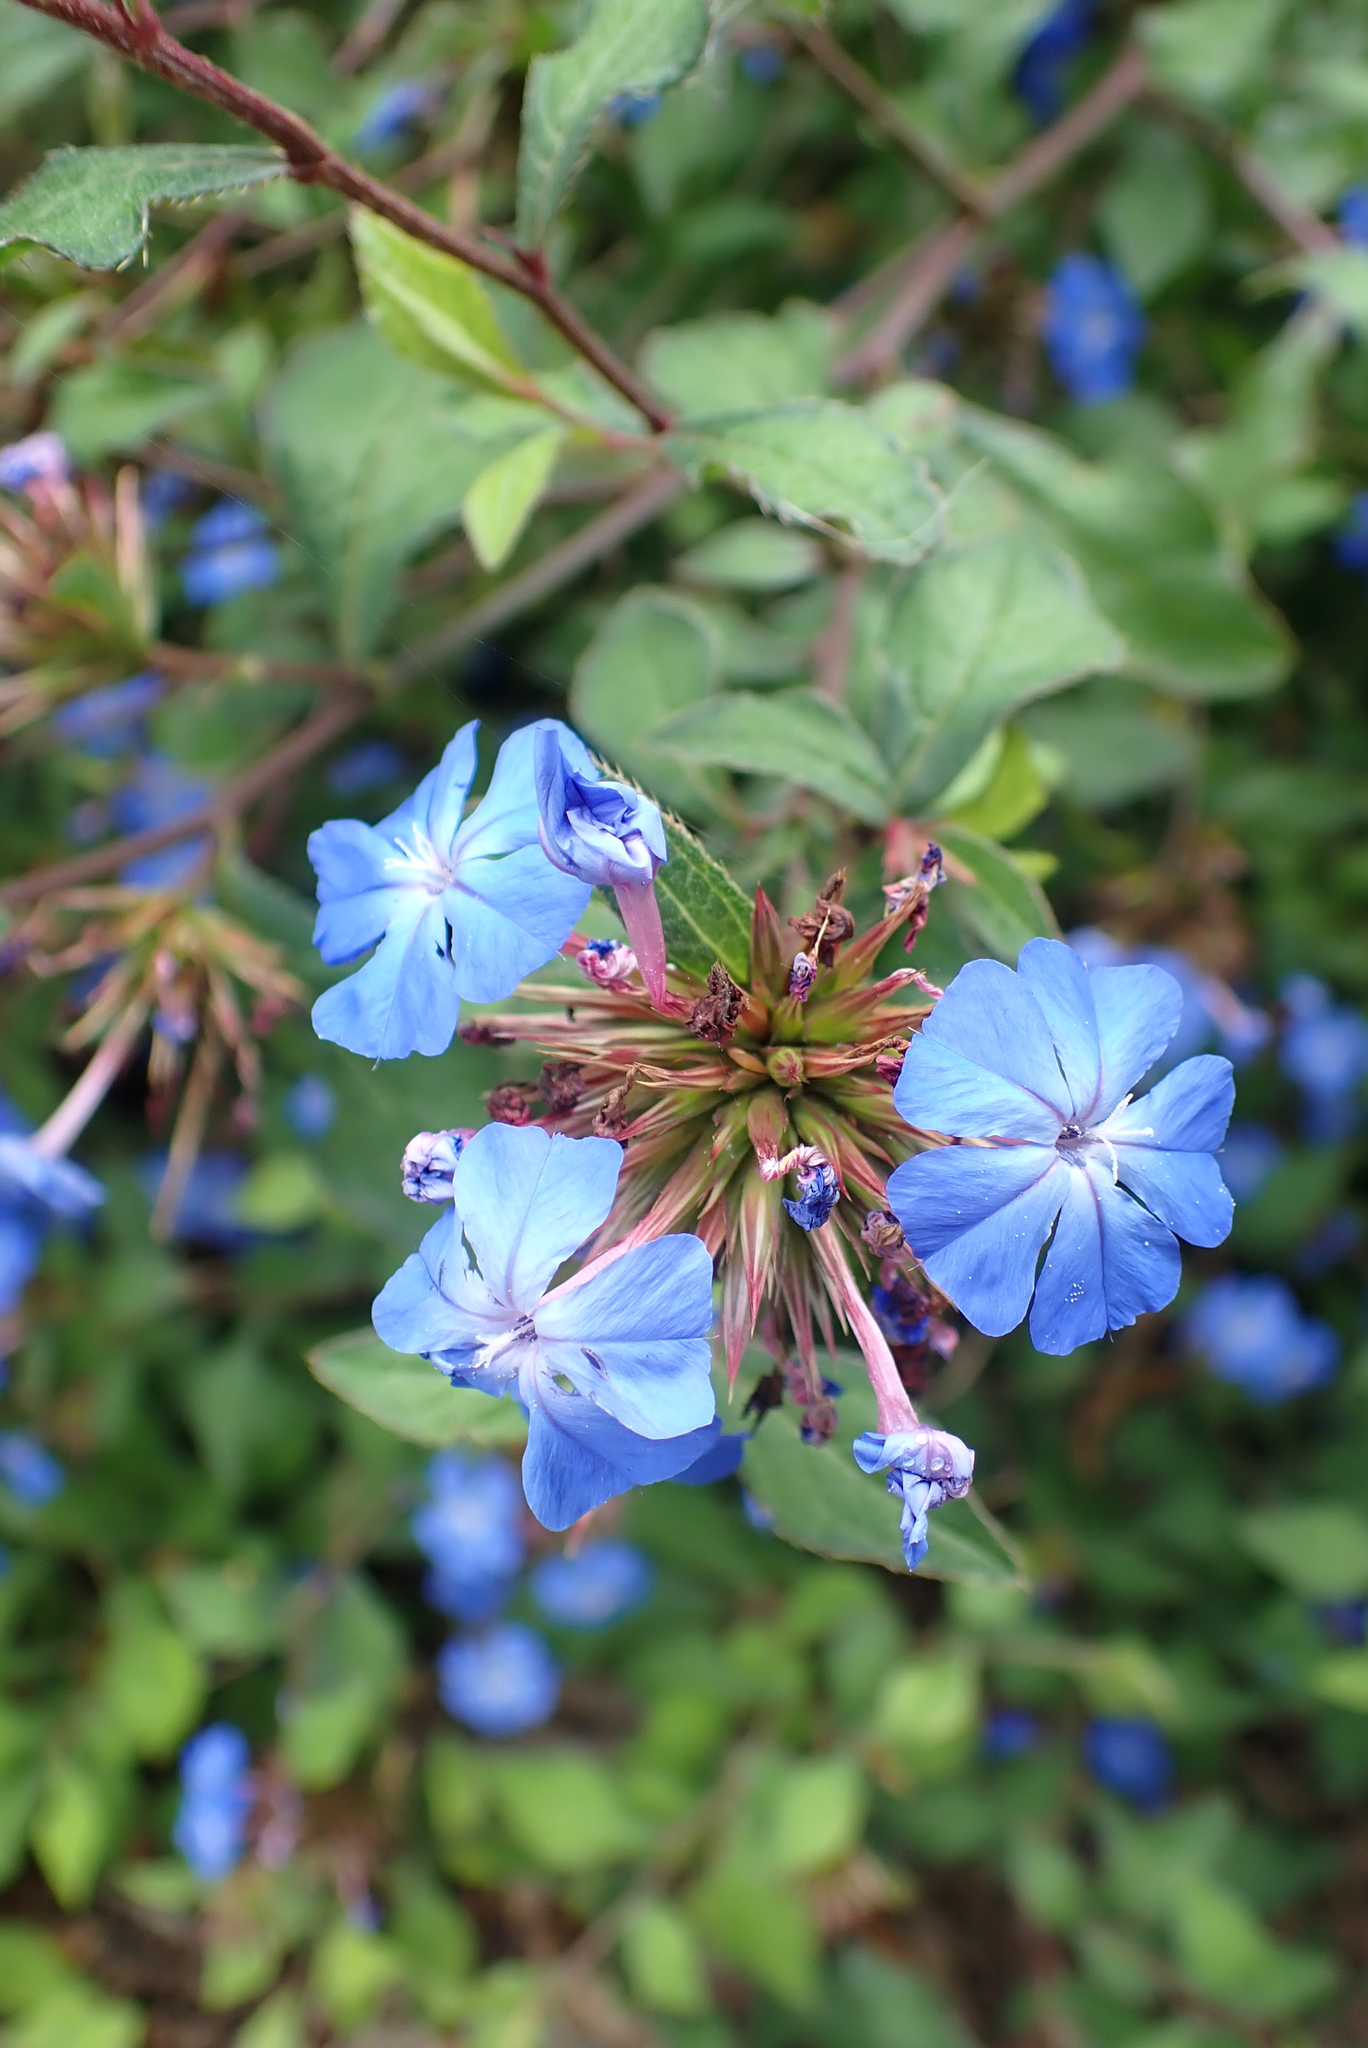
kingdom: Plantae
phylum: Tracheophyta
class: Magnoliopsida
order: Caryophyllales
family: Plumbaginaceae
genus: Ceratostigma
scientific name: Ceratostigma plumbaginoides
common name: Blue leadwood
